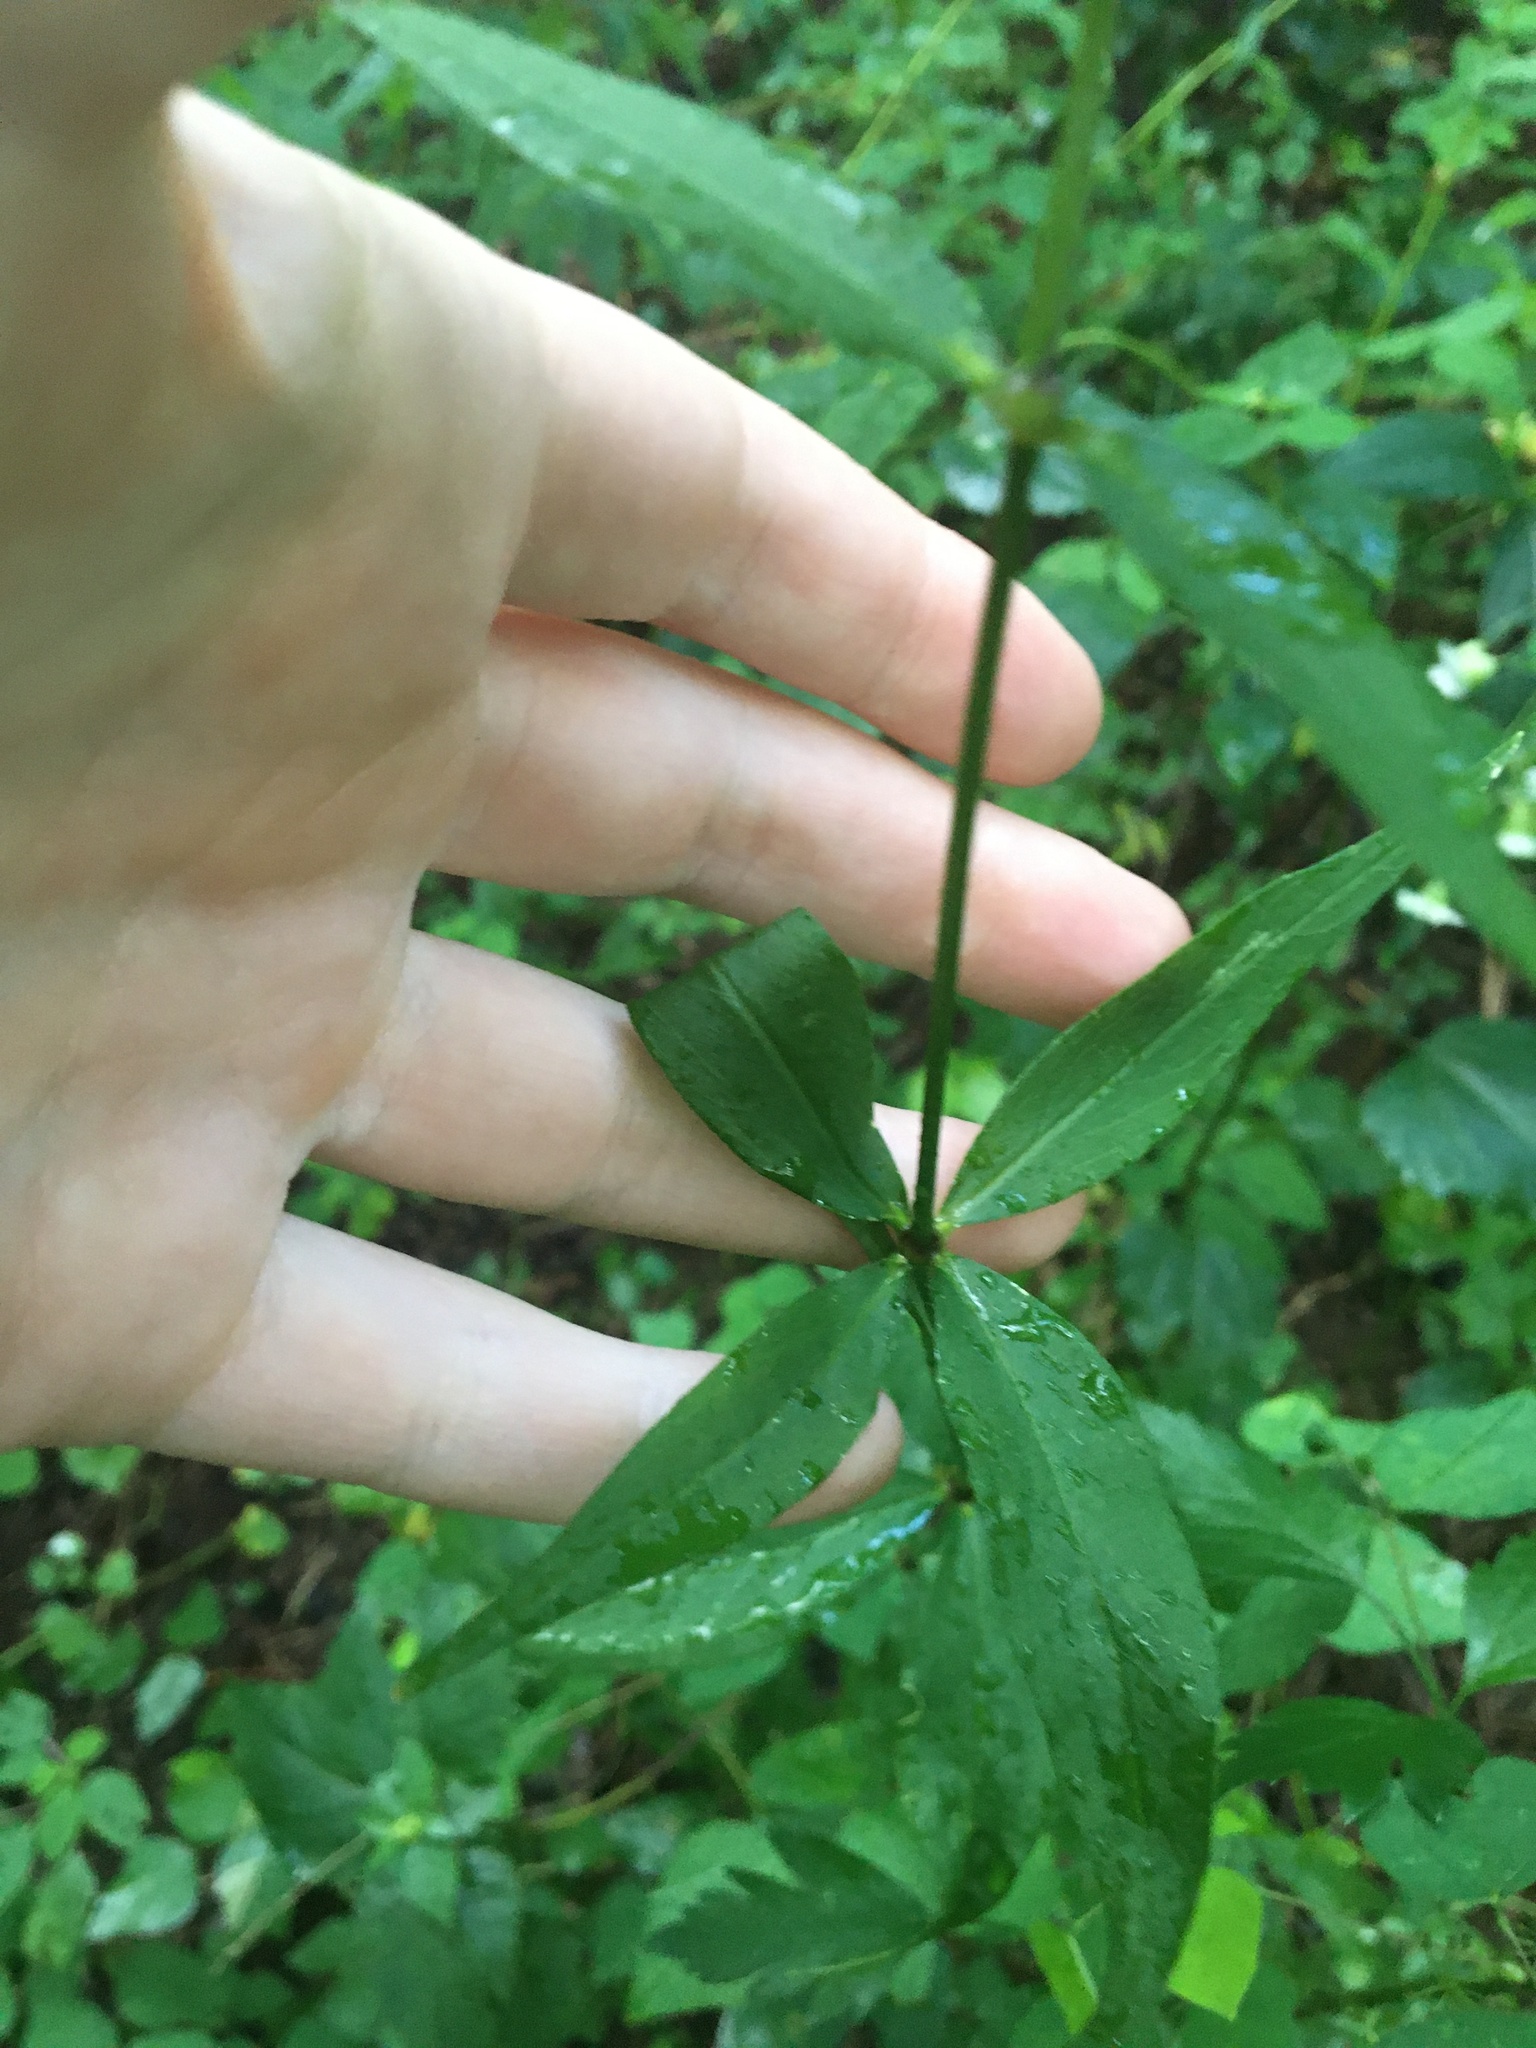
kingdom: Plantae
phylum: Tracheophyta
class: Magnoliopsida
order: Caryophyllales
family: Caryophyllaceae
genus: Silene
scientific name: Silene stellata
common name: Starry campion
